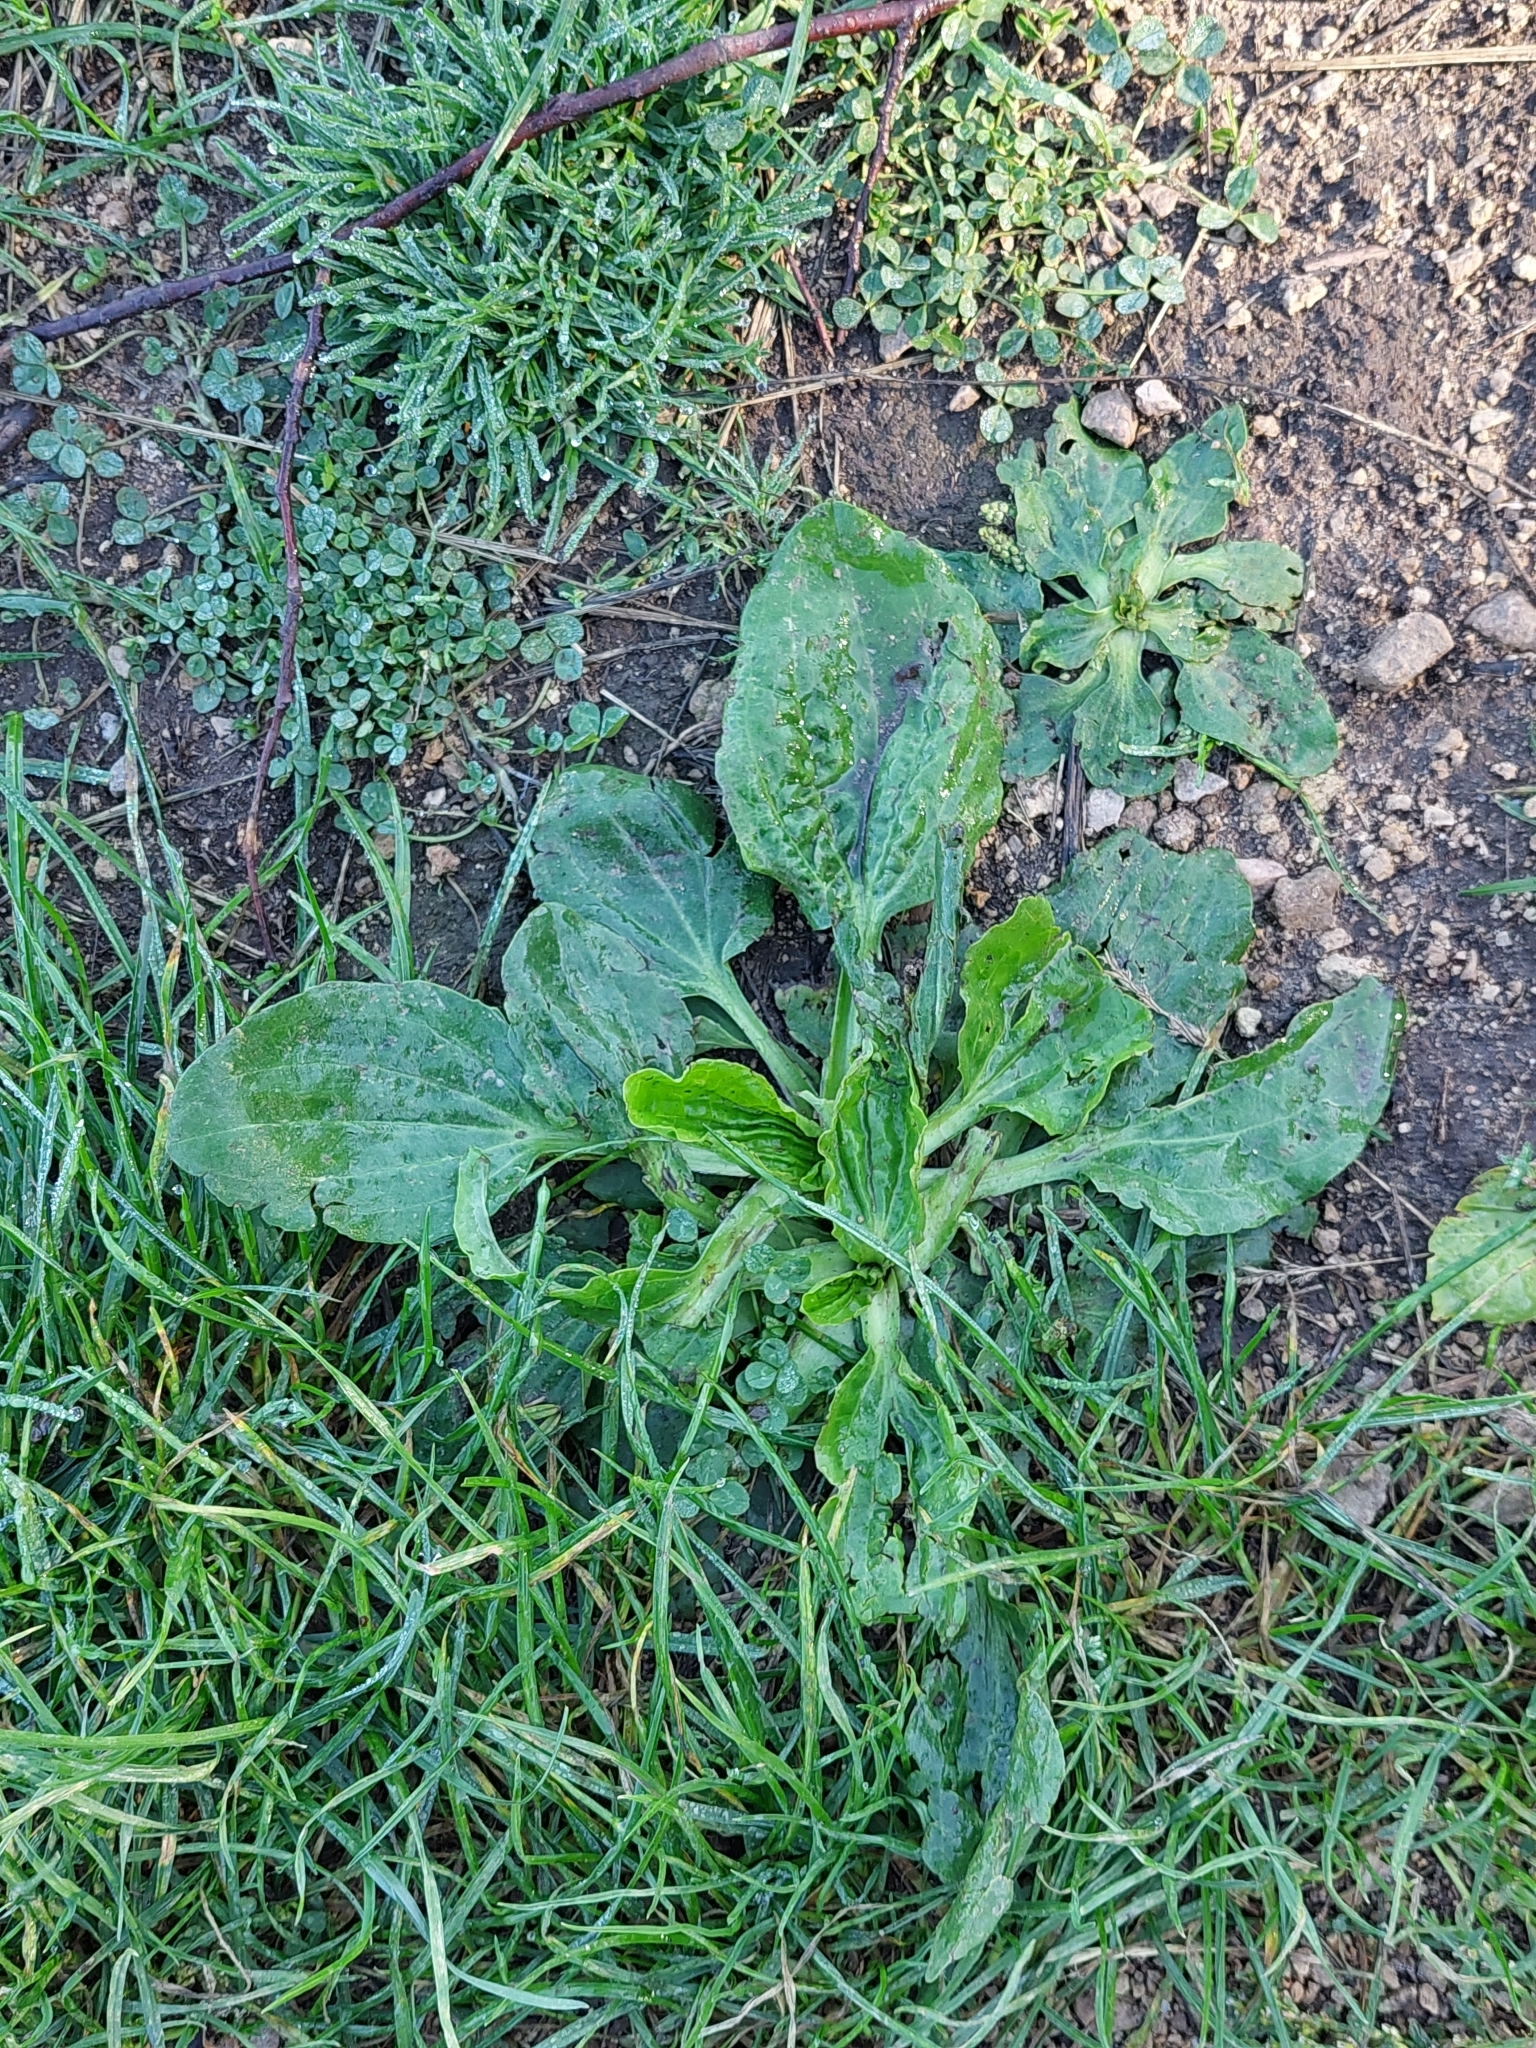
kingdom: Plantae
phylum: Tracheophyta
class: Magnoliopsida
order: Lamiales
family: Plantaginaceae
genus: Plantago
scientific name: Plantago major
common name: Common plantain
